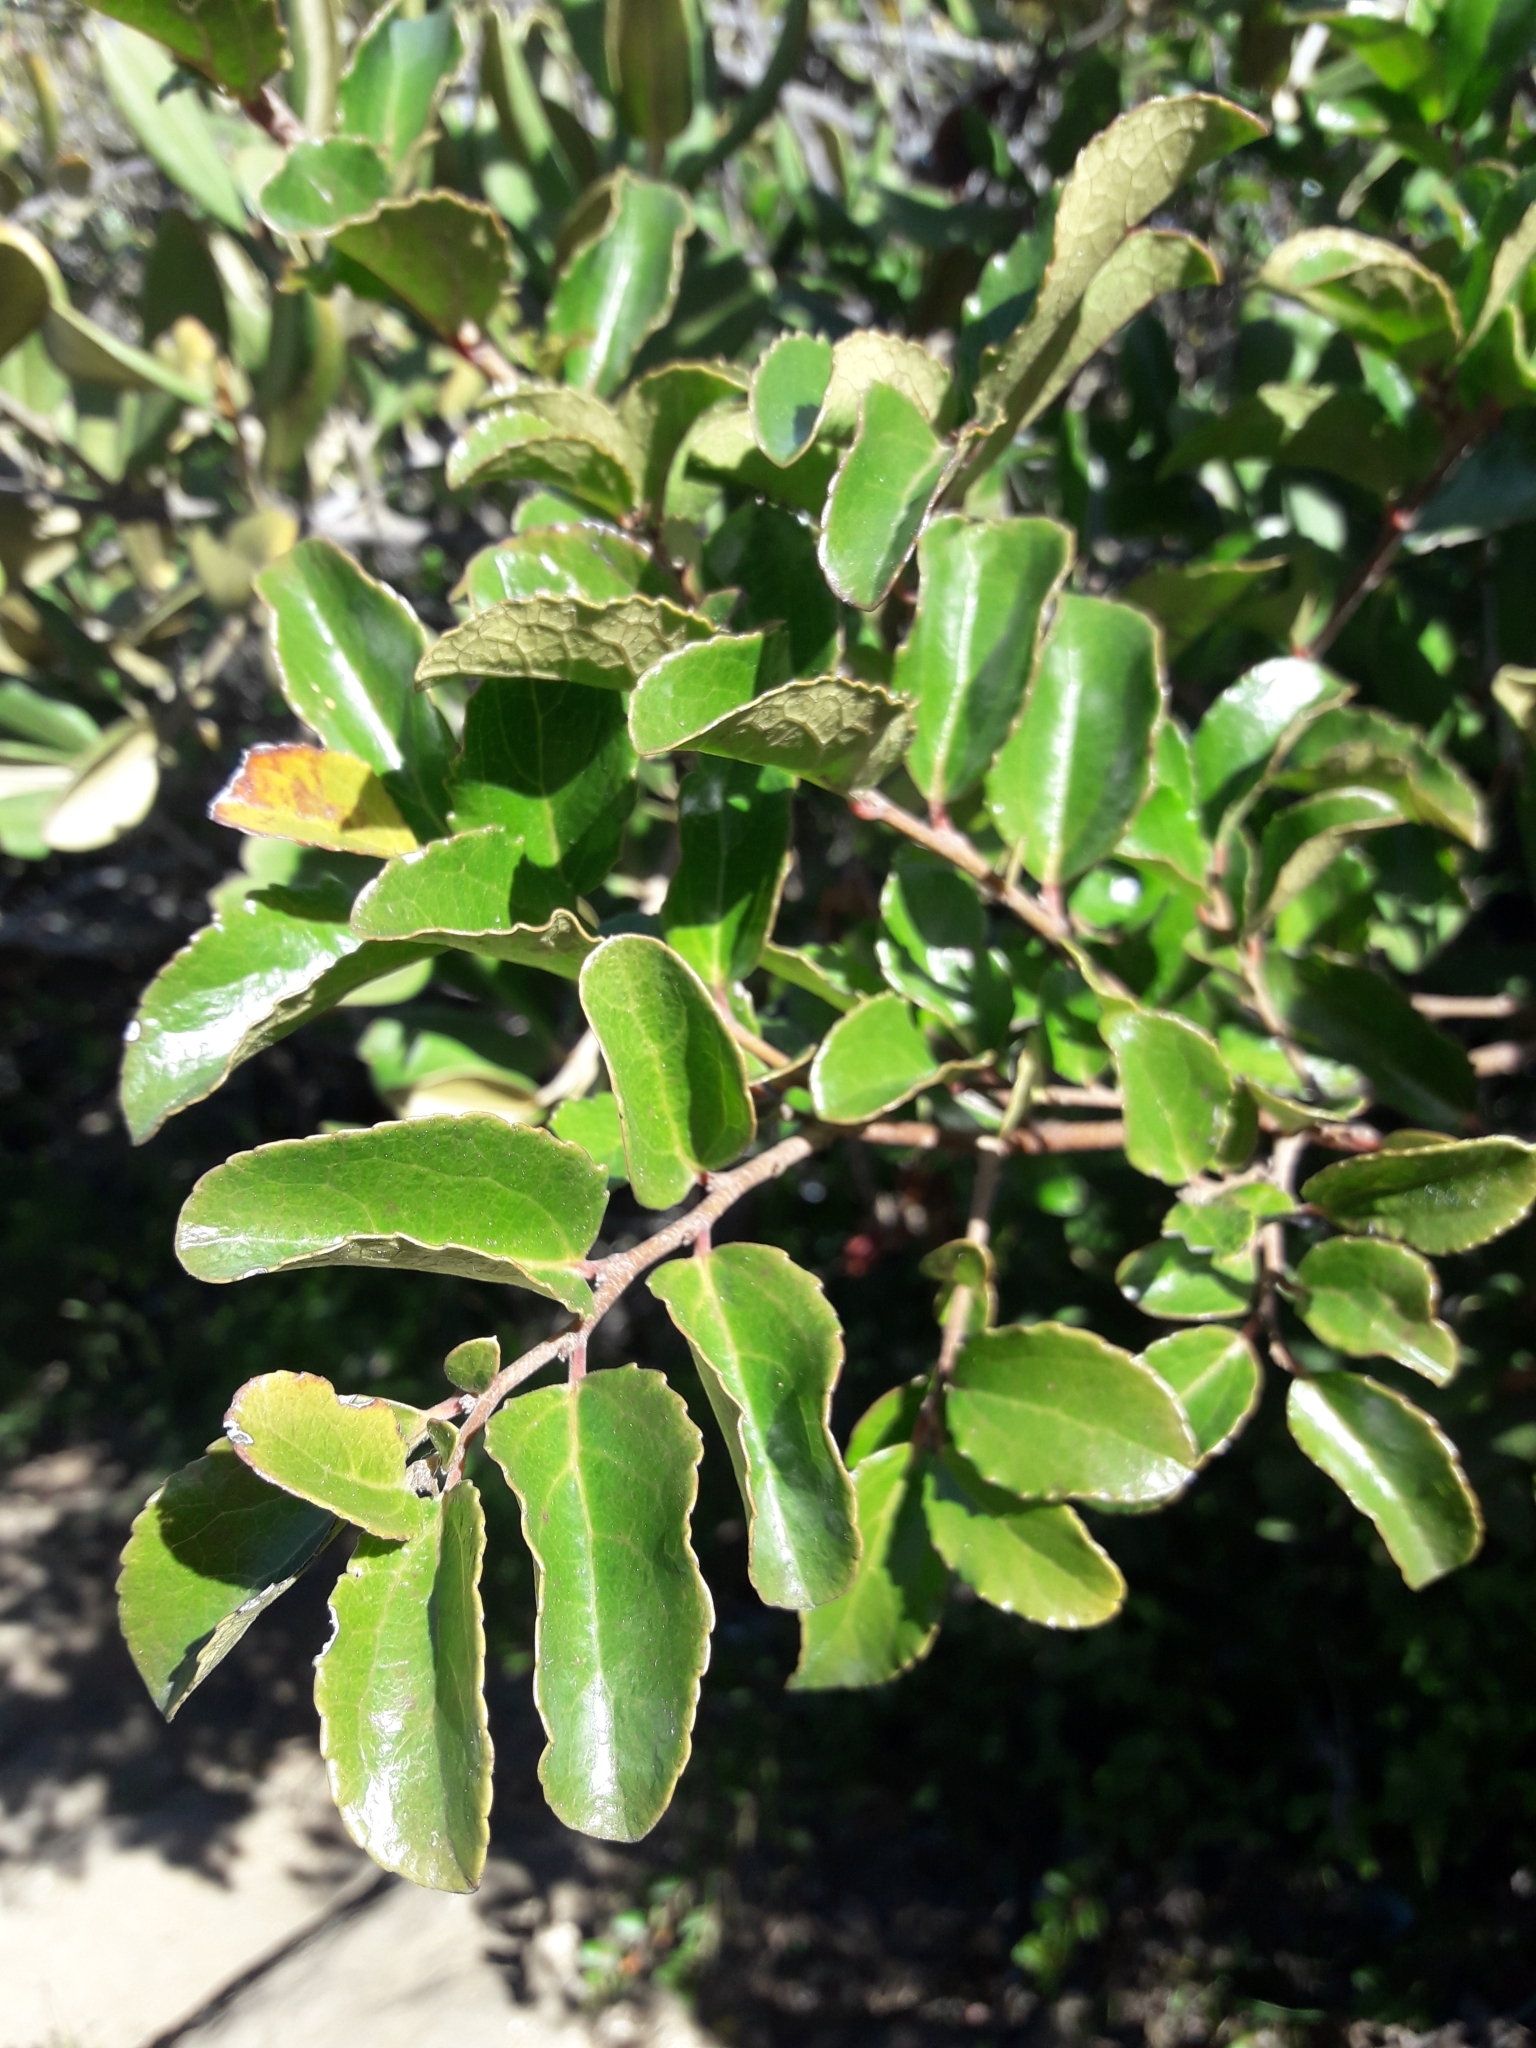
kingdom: Plantae
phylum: Tracheophyta
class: Magnoliopsida
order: Malpighiales
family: Salicaceae
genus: Azara
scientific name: Azara celastrina
